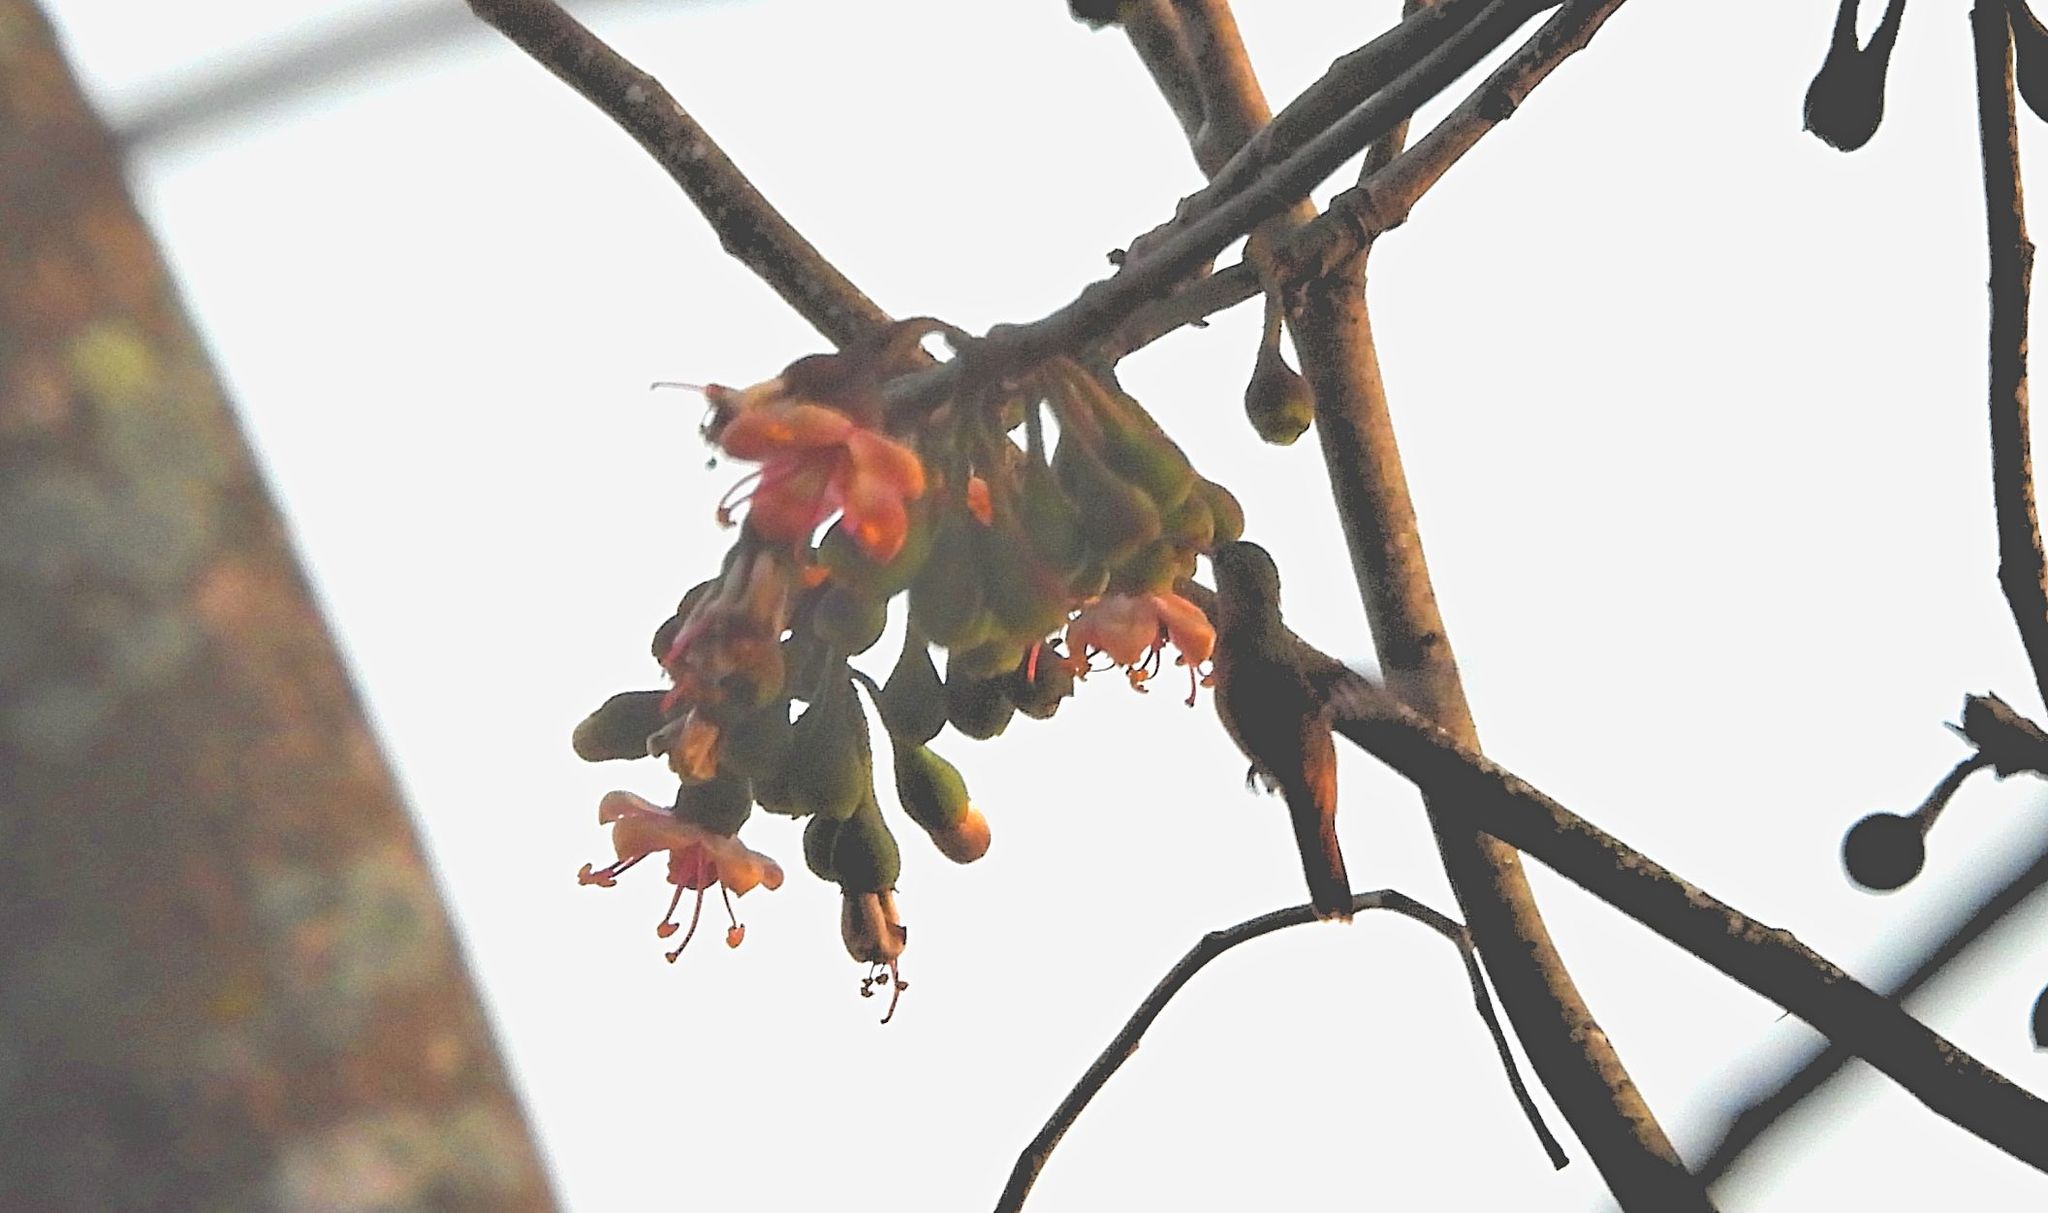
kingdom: Animalia
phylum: Chordata
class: Aves
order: Apodiformes
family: Trochilidae
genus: Amazilia
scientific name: Amazilia rutila
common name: Cinnamon hummingbird
